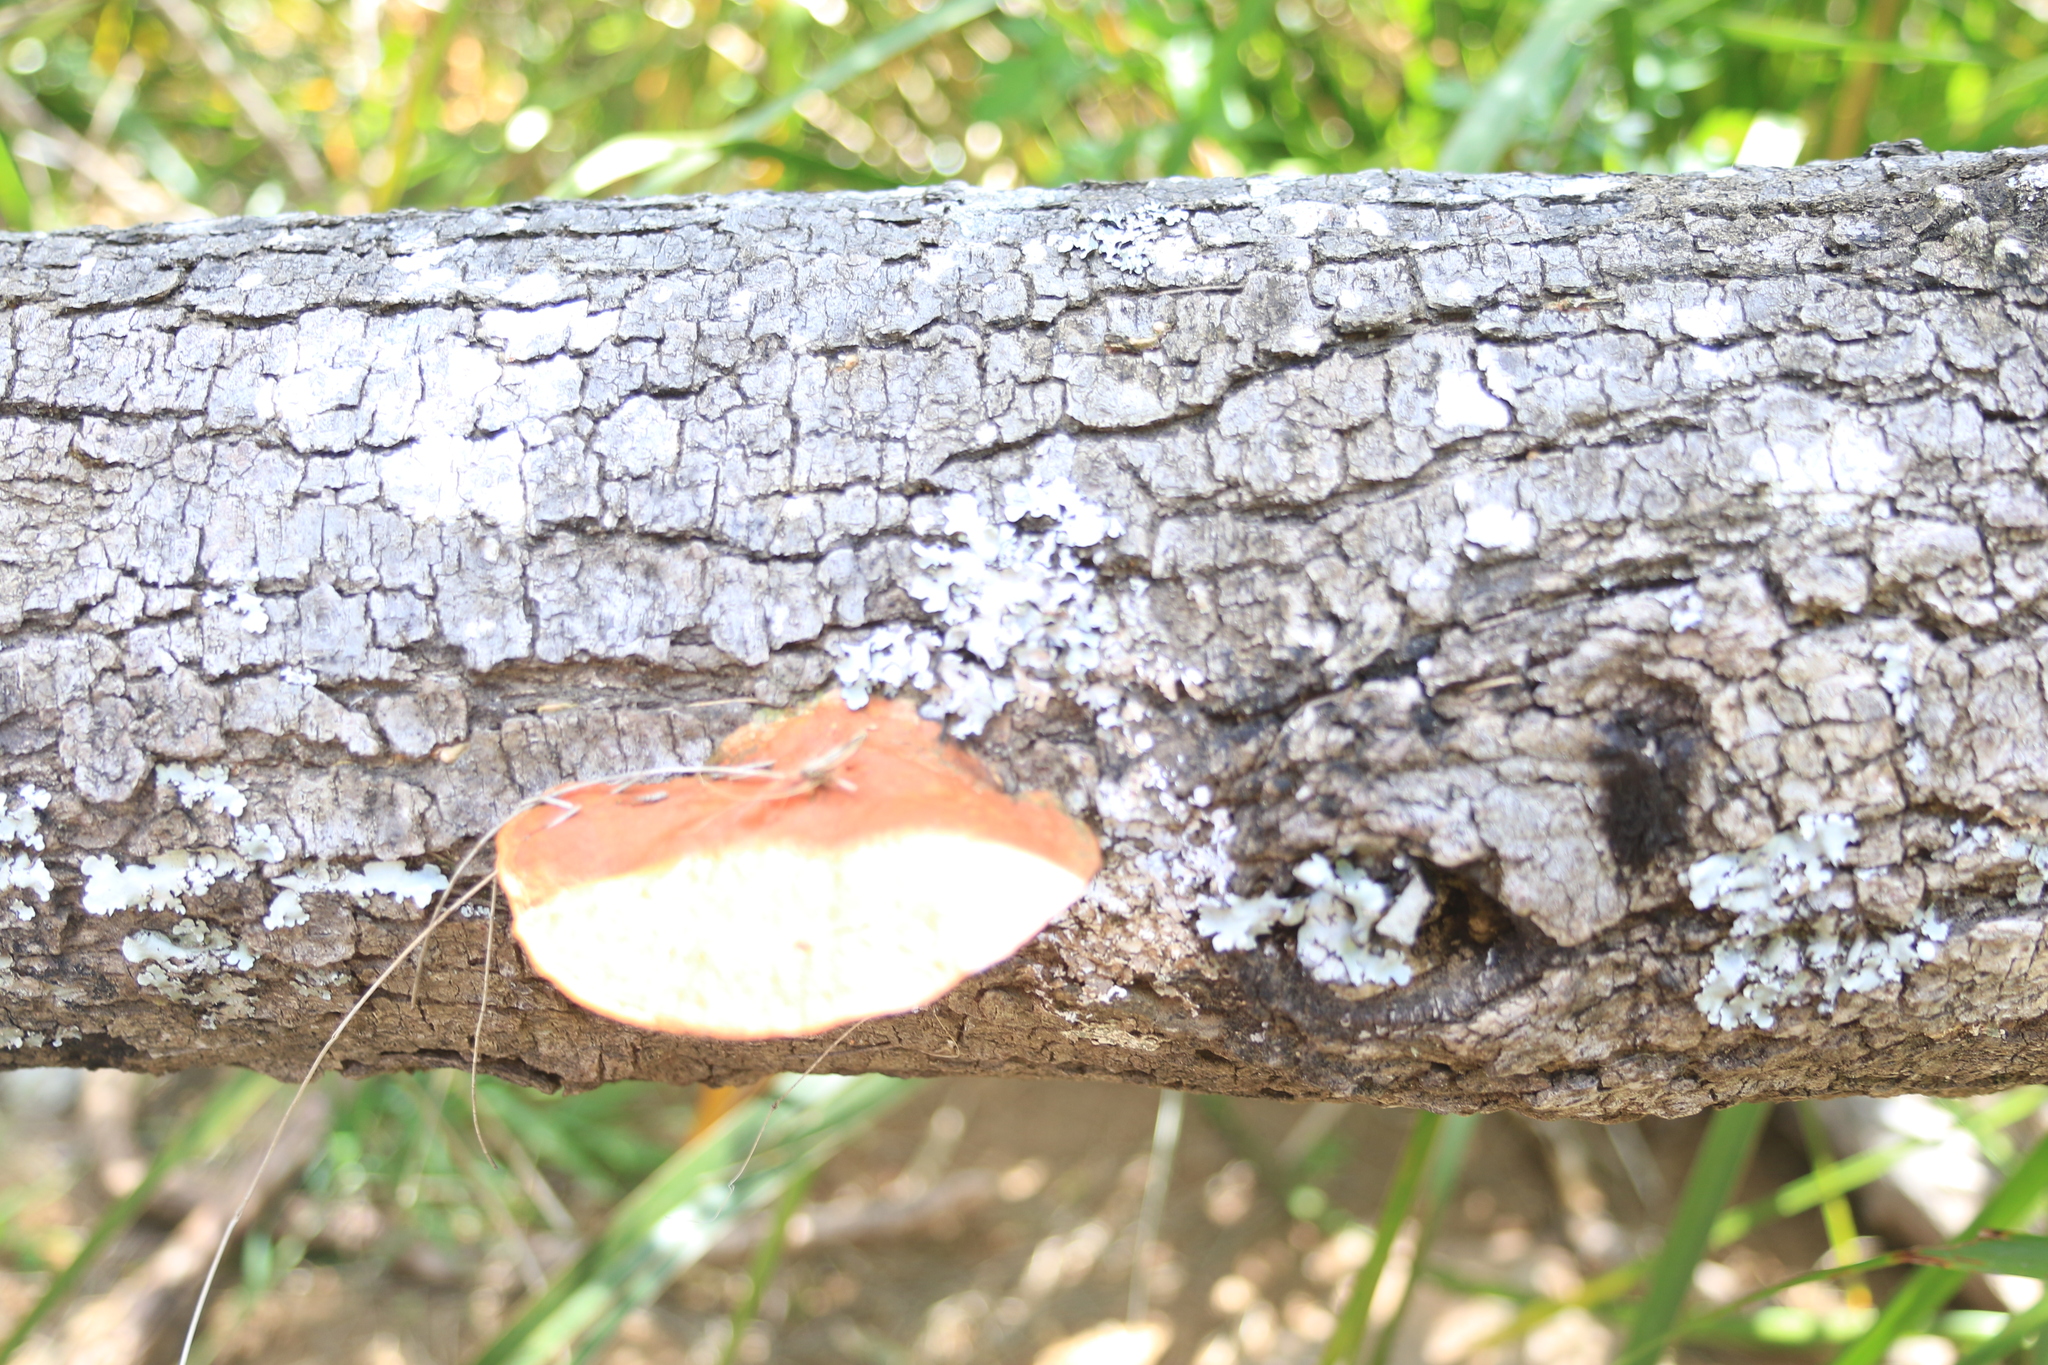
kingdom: Fungi
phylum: Basidiomycota
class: Agaricomycetes
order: Polyporales
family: Polyporaceae
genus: Trametes
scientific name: Trametes coccinea
